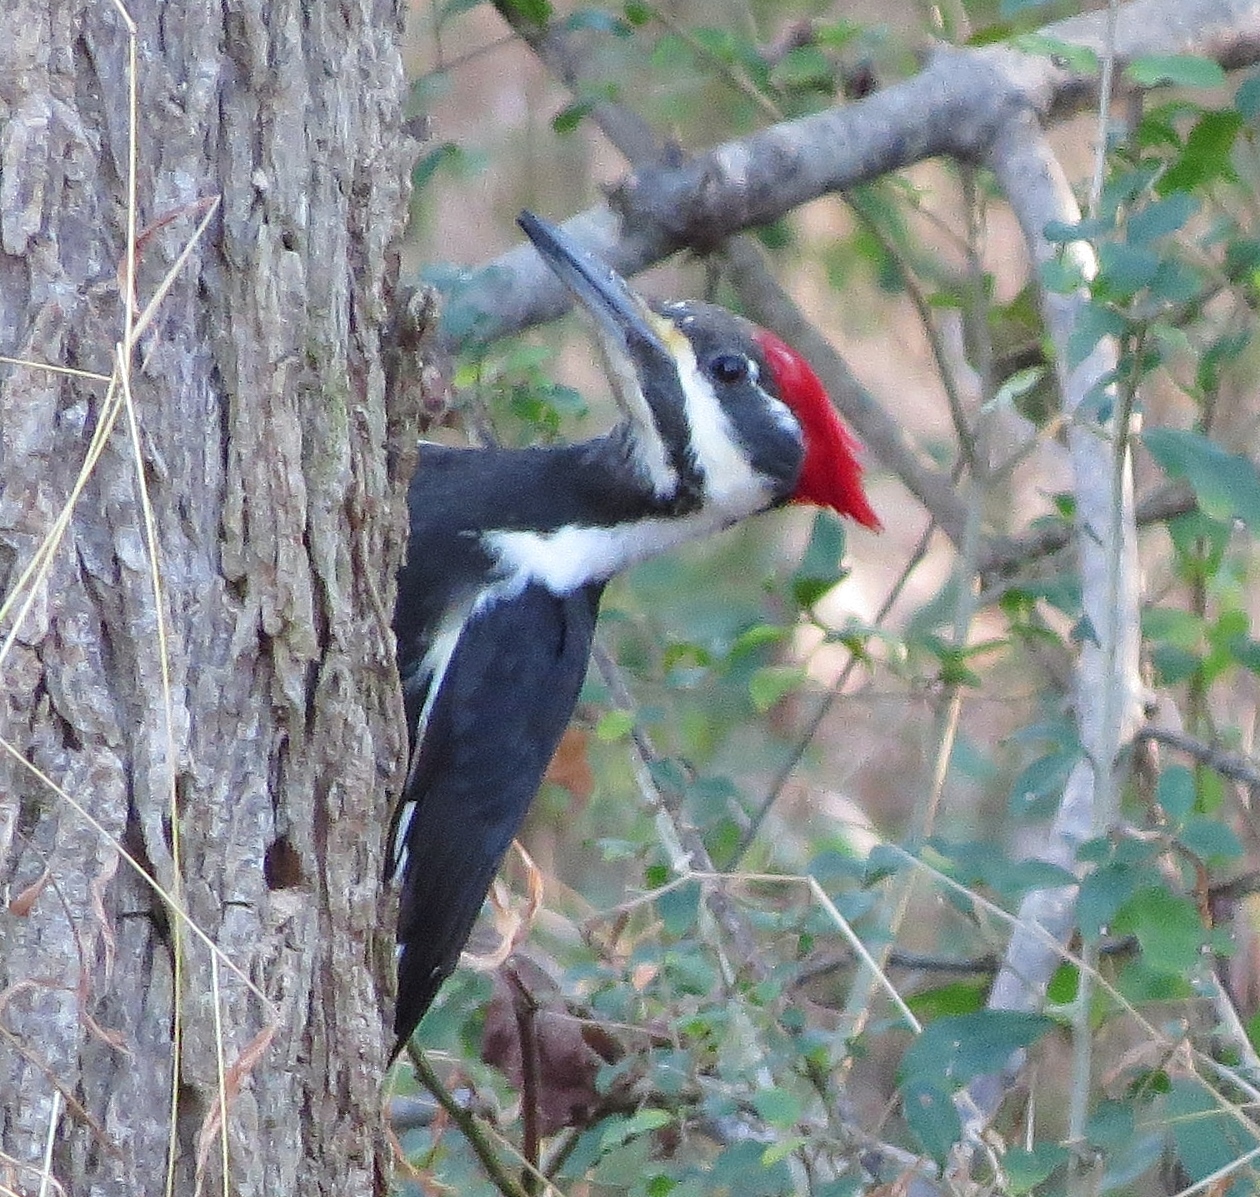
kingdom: Animalia
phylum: Chordata
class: Aves
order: Piciformes
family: Picidae
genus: Dryocopus
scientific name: Dryocopus pileatus
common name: Pileated woodpecker
